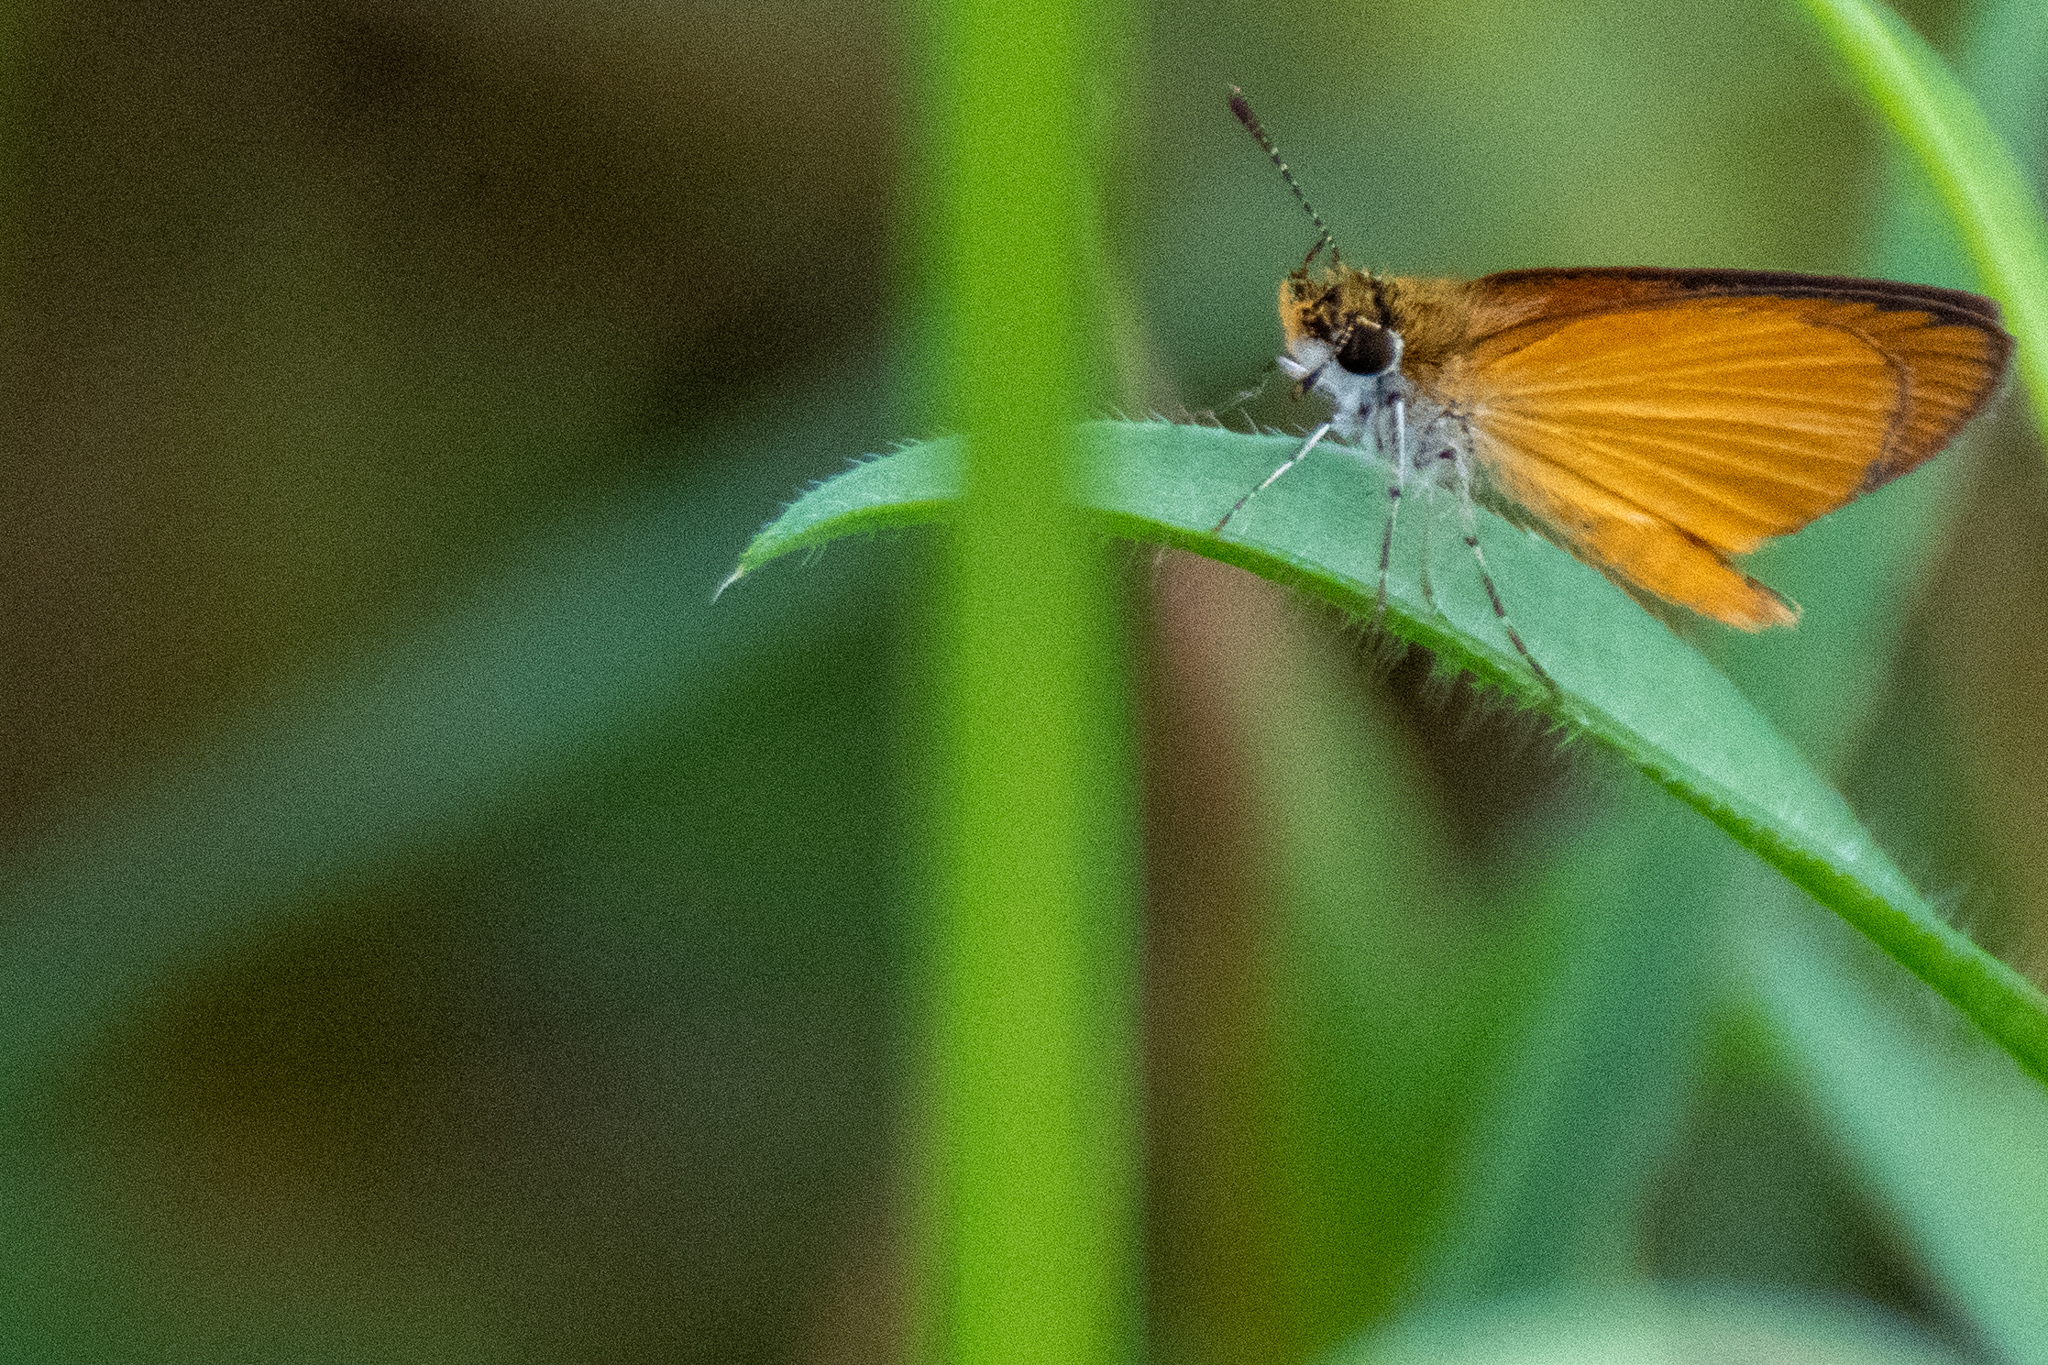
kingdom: Animalia
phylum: Arthropoda
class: Insecta
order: Lepidoptera
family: Hesperiidae
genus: Ancyloxypha
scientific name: Ancyloxypha numitor
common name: Least skipper
